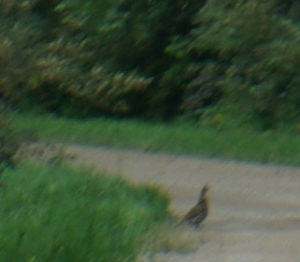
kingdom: Animalia
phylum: Chordata
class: Aves
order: Galliformes
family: Phasianidae
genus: Bonasa
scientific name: Bonasa umbellus
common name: Ruffed grouse
